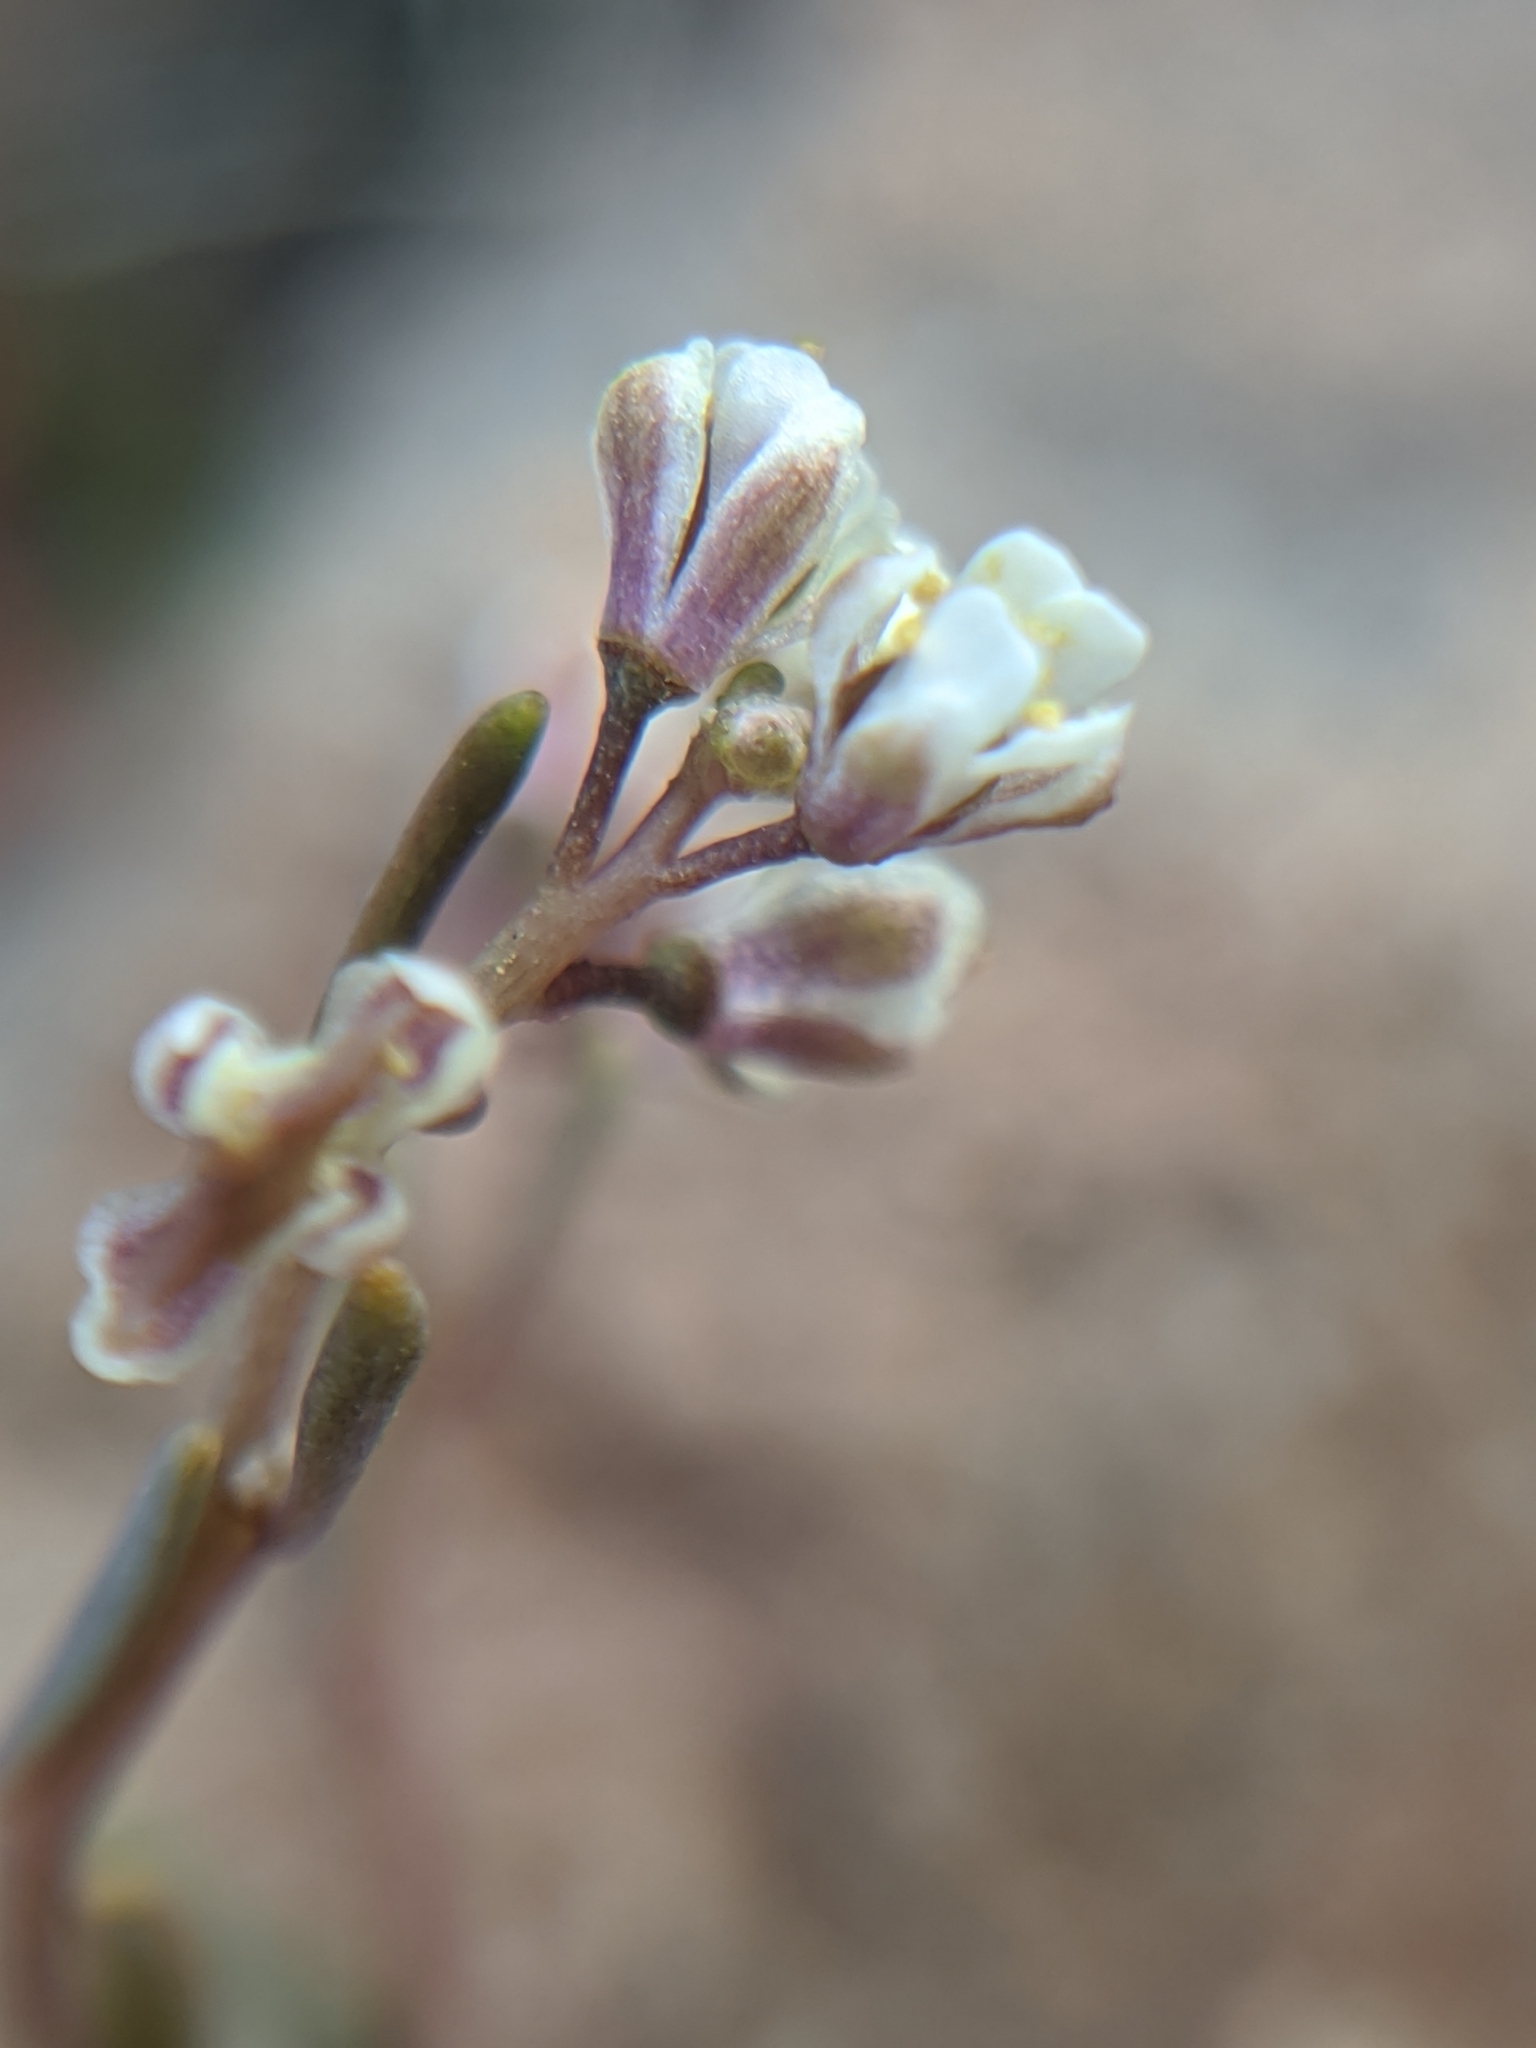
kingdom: Plantae
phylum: Tracheophyta
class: Magnoliopsida
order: Brassicales
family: Brassicaceae
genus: Thysanocarpus
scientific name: Thysanocarpus desertorum
